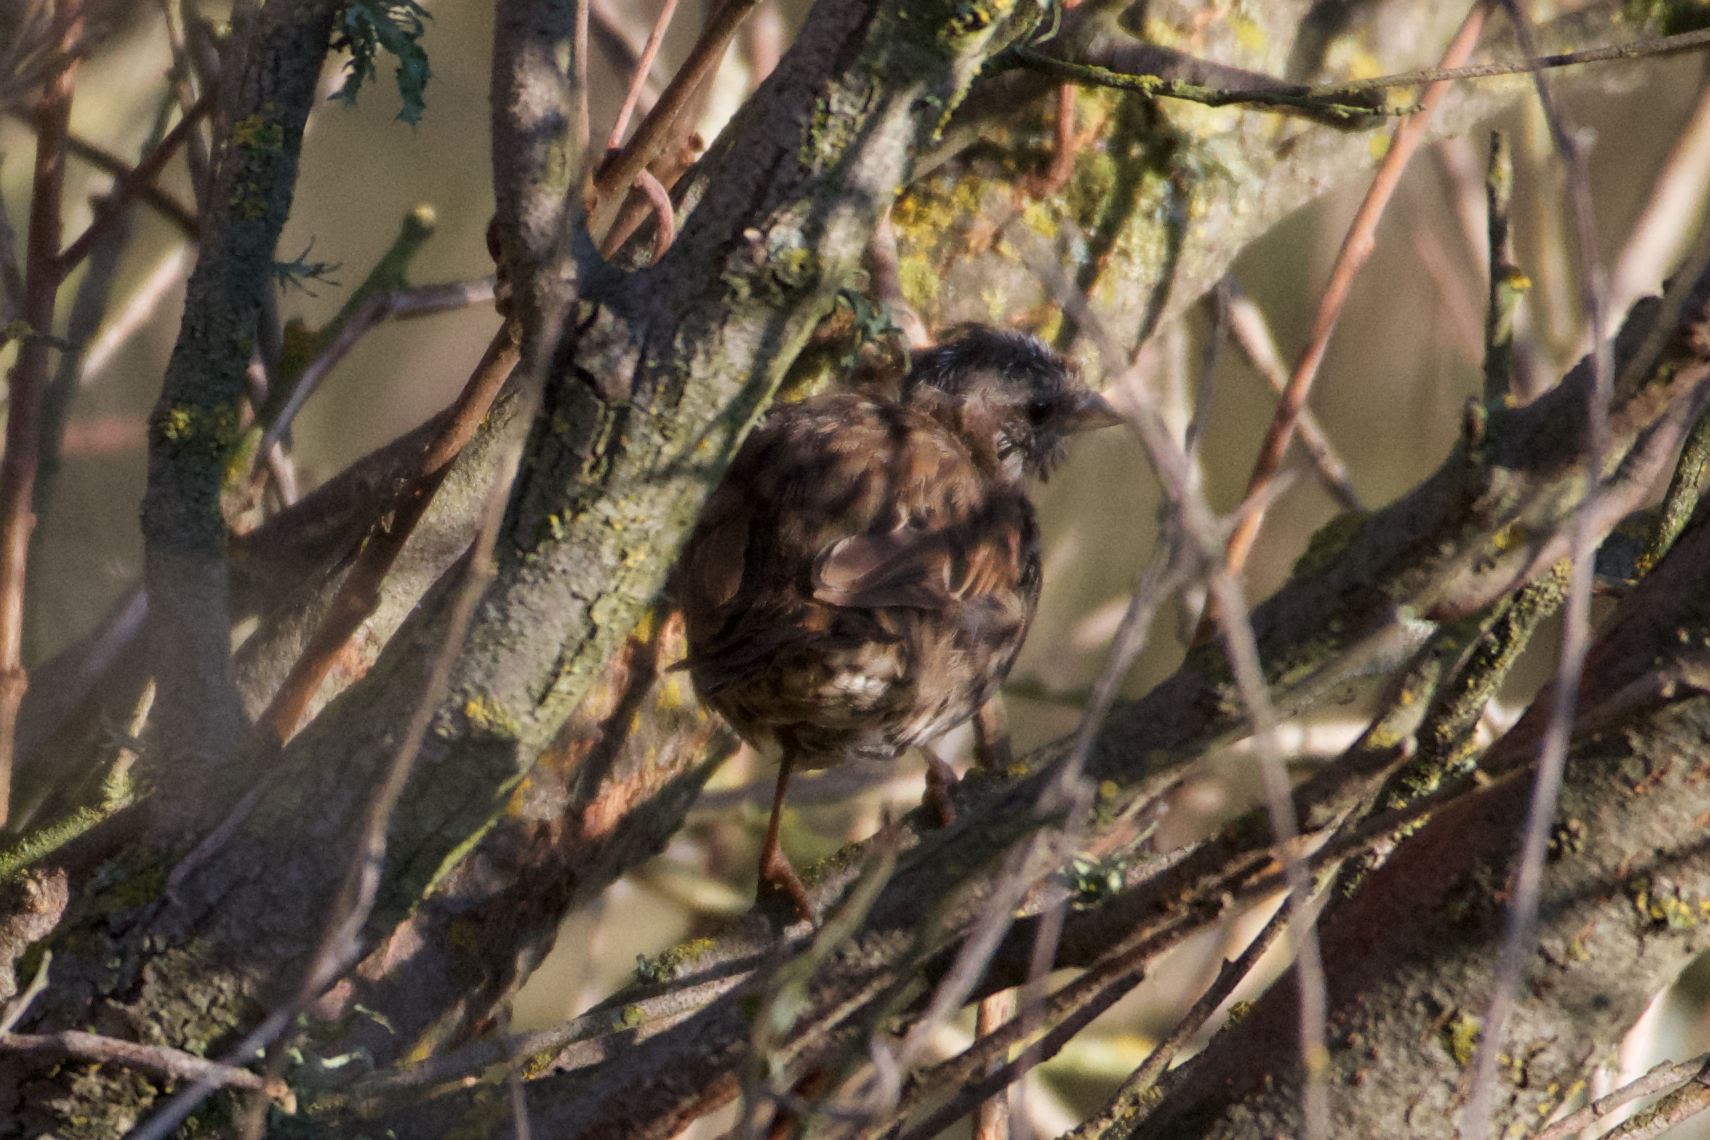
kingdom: Animalia
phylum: Chordata
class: Aves
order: Passeriformes
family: Passerellidae
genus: Melospiza
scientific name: Melospiza melodia
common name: Song sparrow
